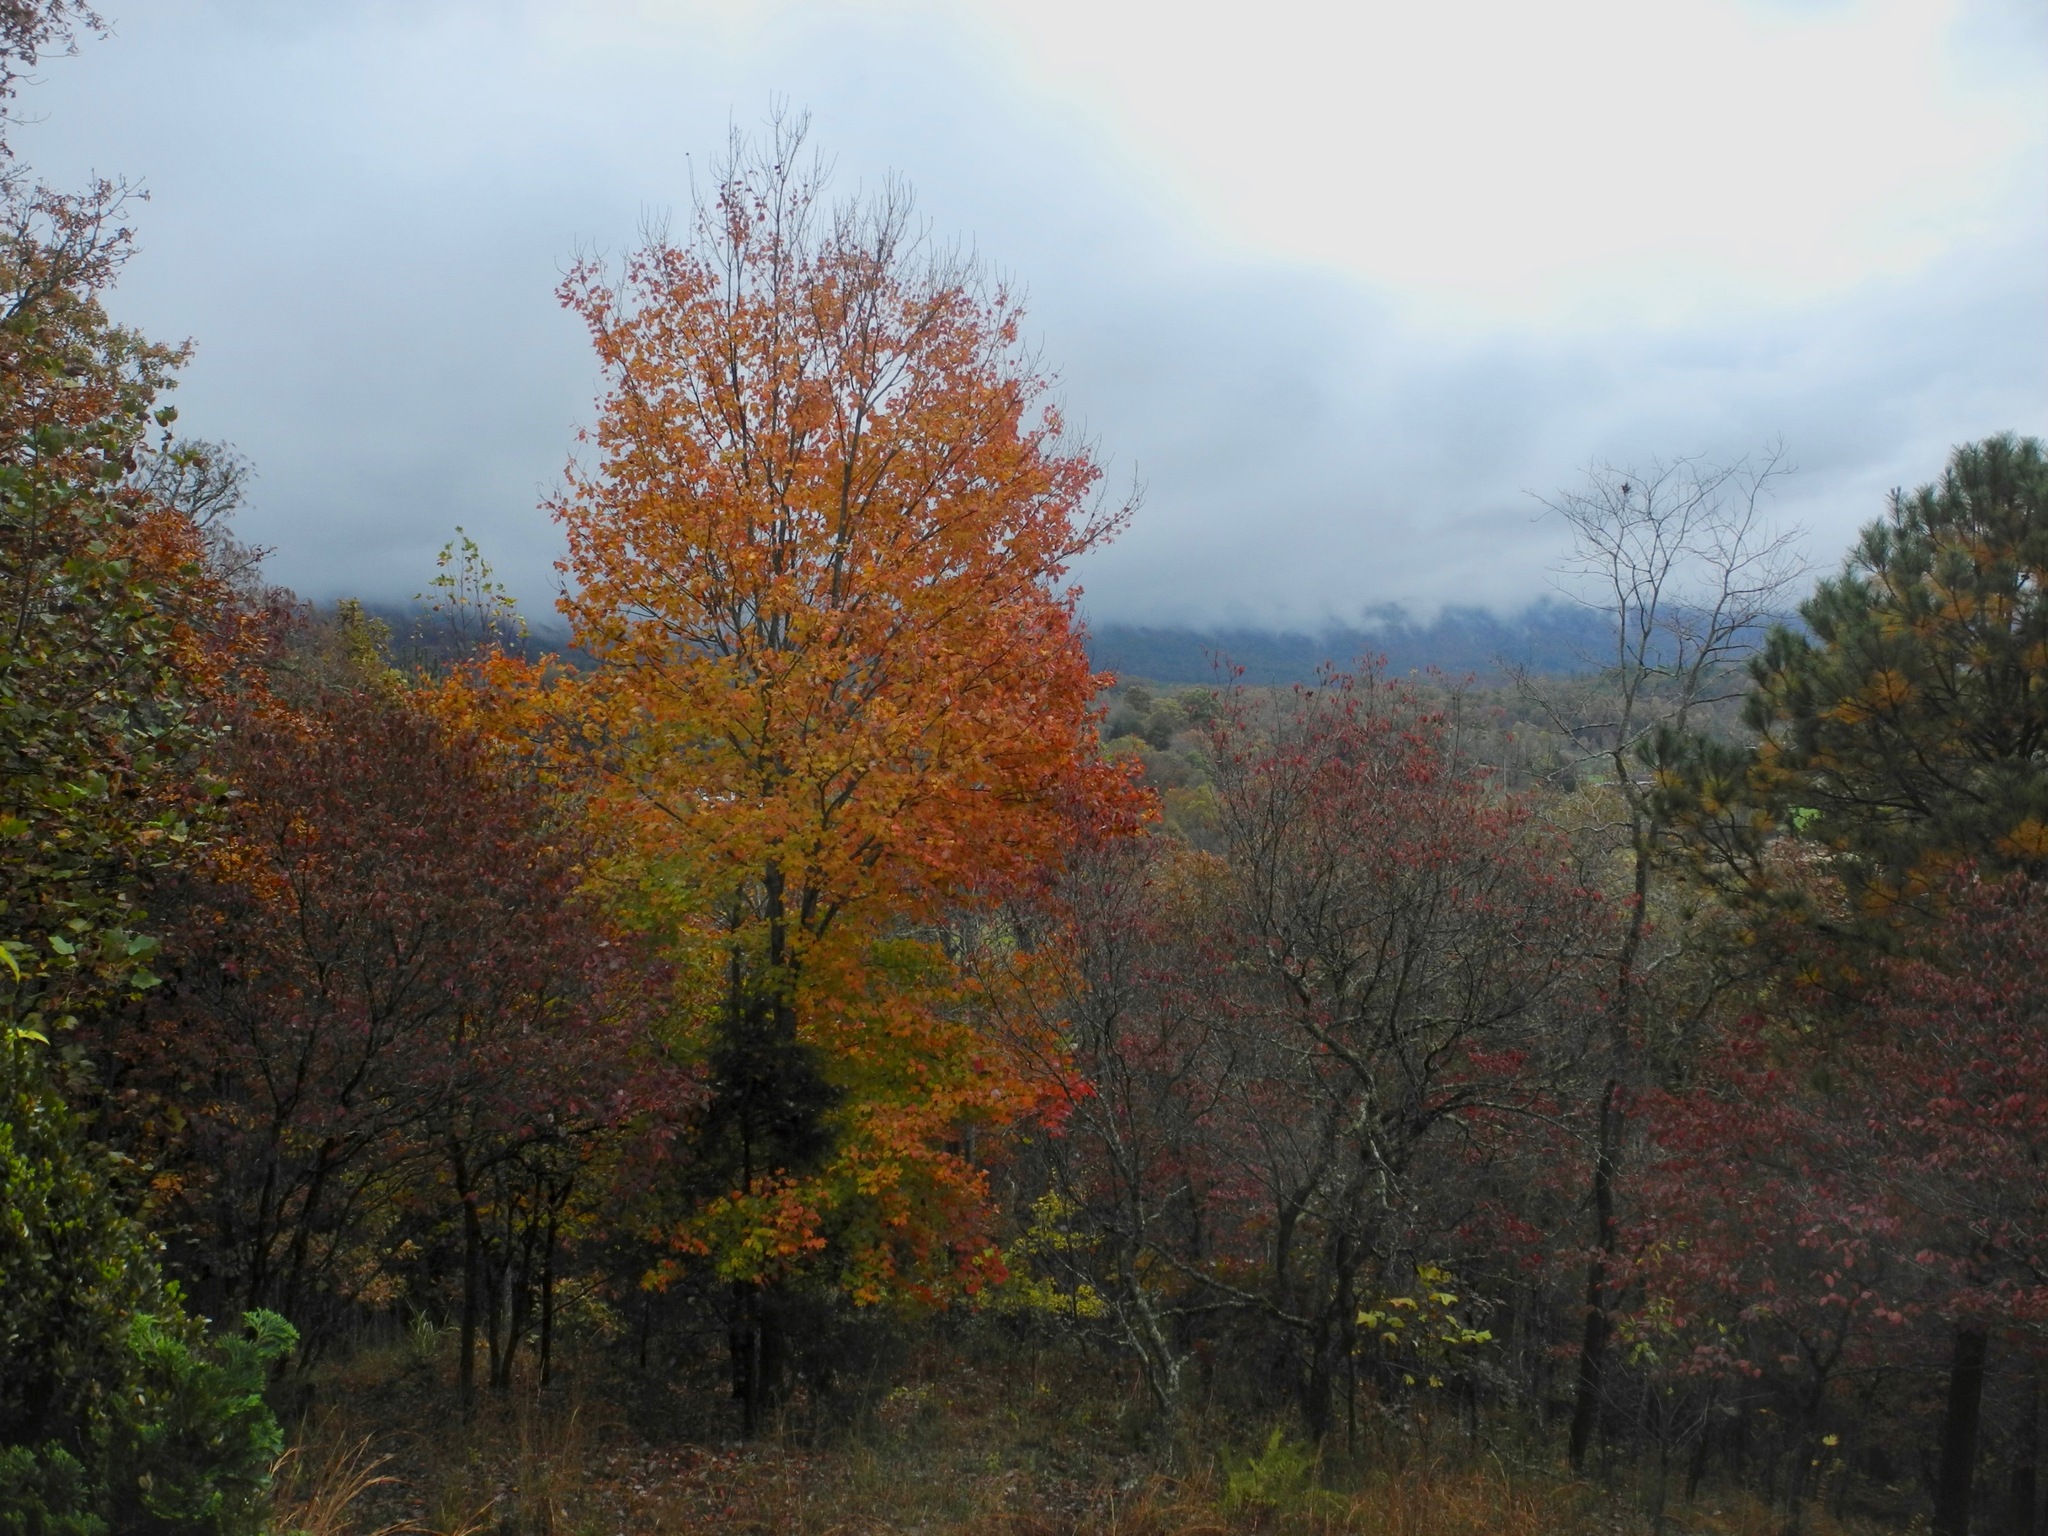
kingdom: Plantae
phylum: Tracheophyta
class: Magnoliopsida
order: Sapindales
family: Sapindaceae
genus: Acer
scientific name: Acer freemanii
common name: Freeman maple
